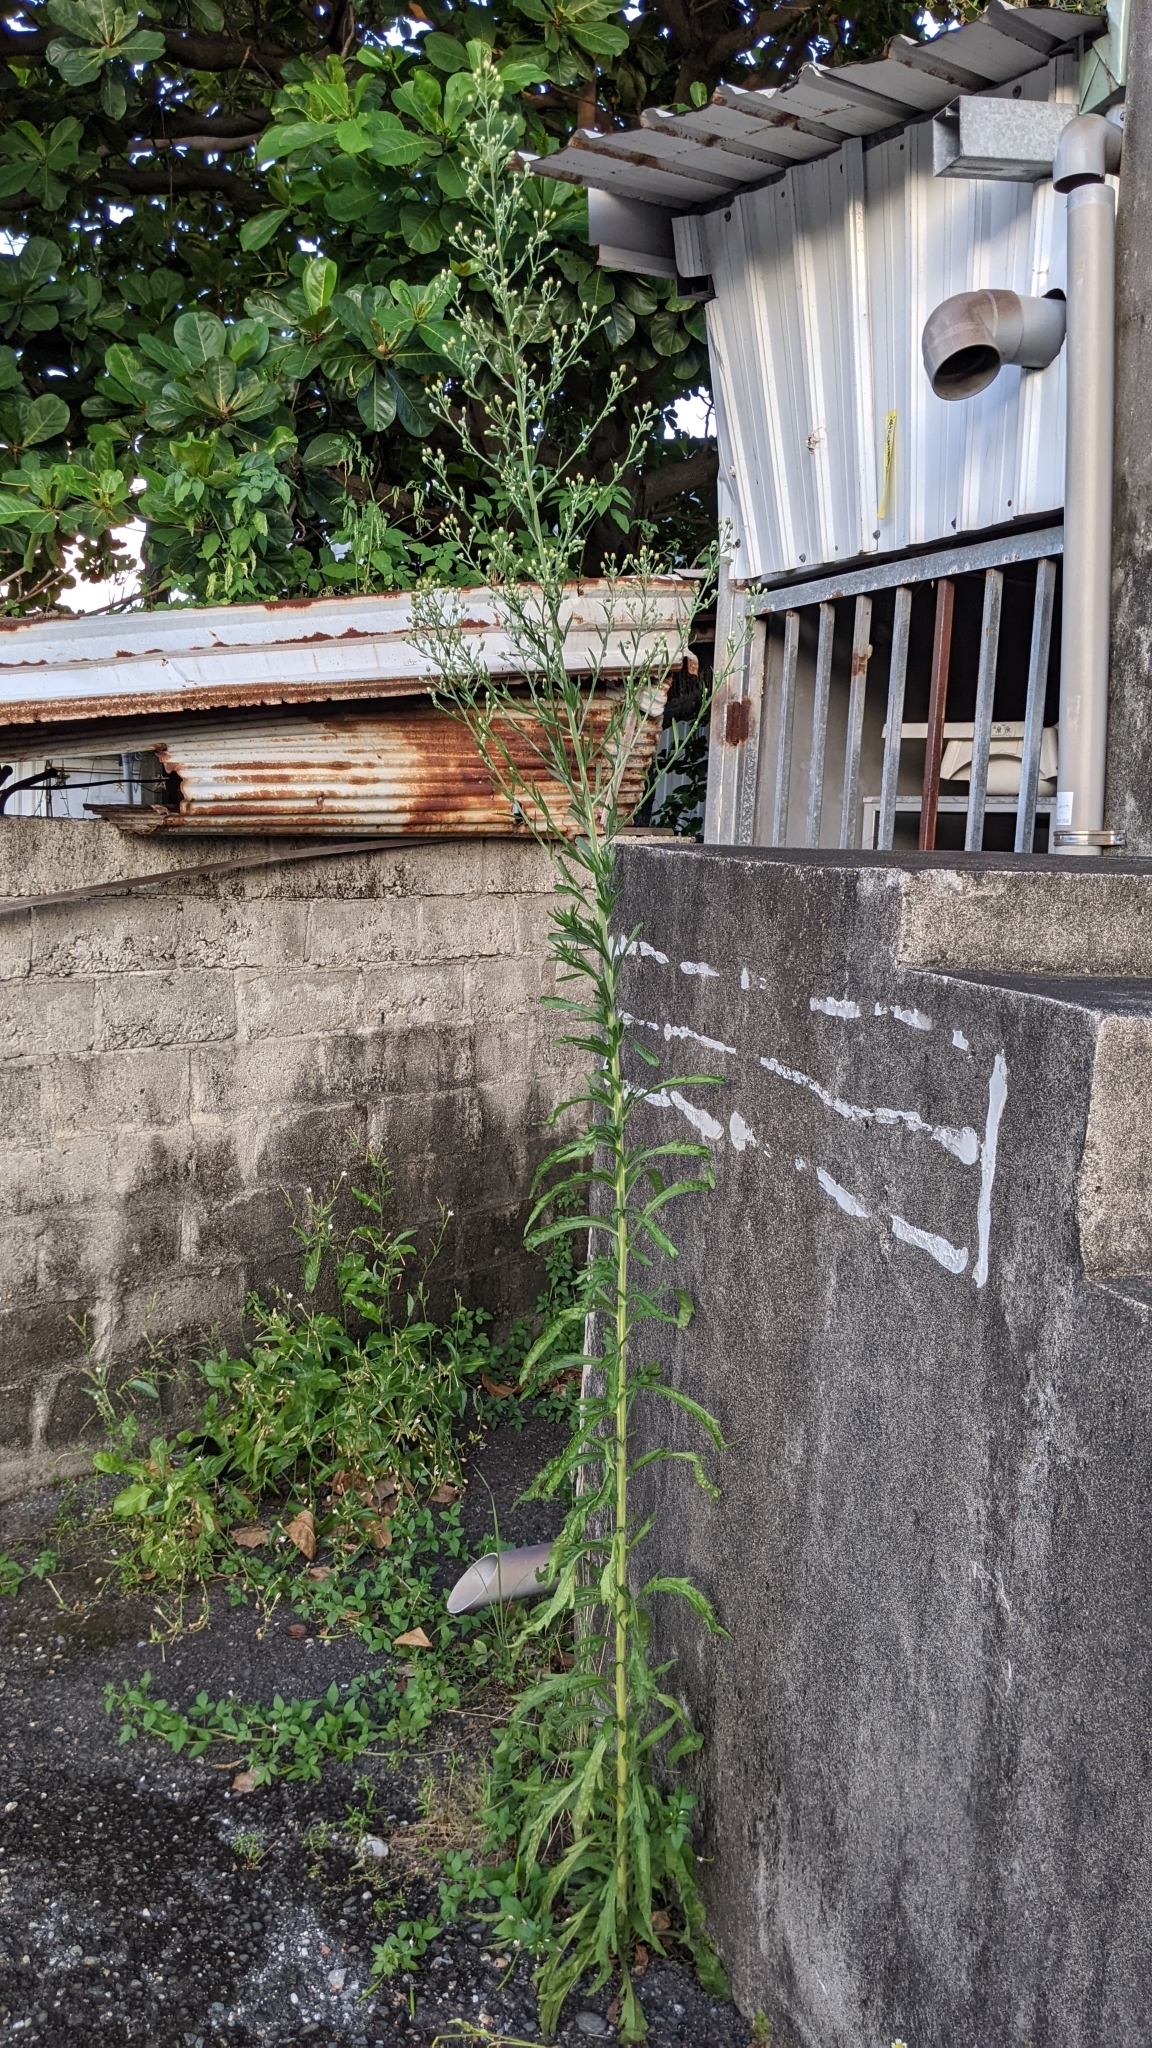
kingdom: Plantae
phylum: Tracheophyta
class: Magnoliopsida
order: Asterales
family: Asteraceae
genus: Erigeron
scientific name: Erigeron sumatrensis
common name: Daisy
